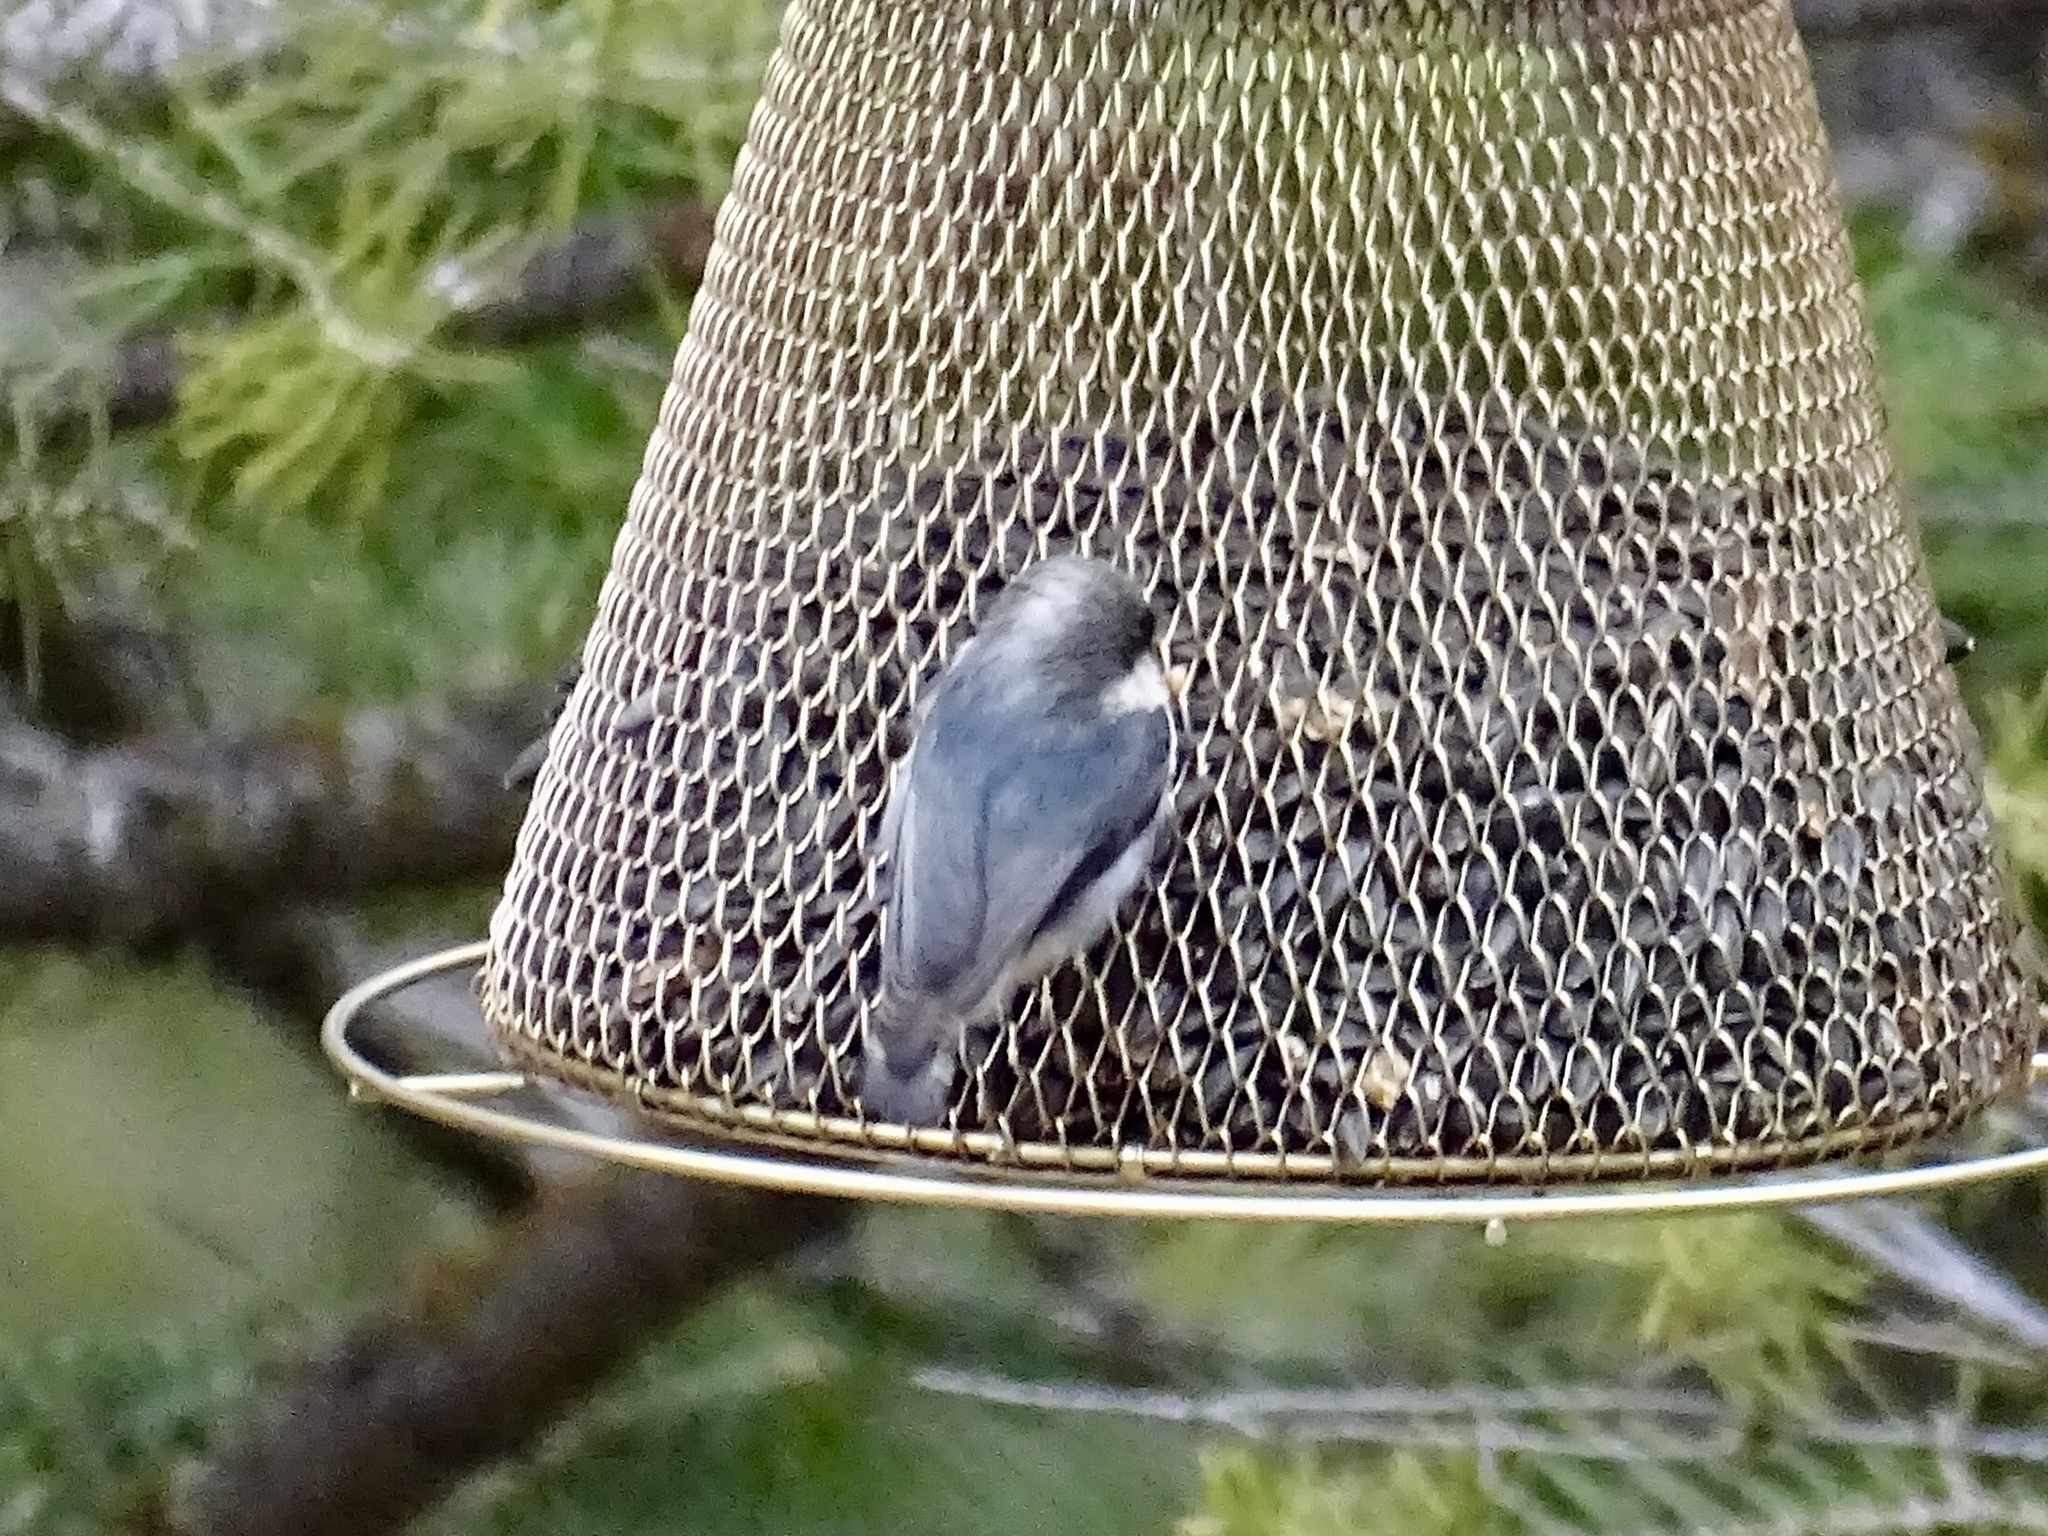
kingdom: Animalia
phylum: Chordata
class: Aves
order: Passeriformes
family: Sittidae
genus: Sitta
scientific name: Sitta pygmaea
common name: Pygmy nuthatch
